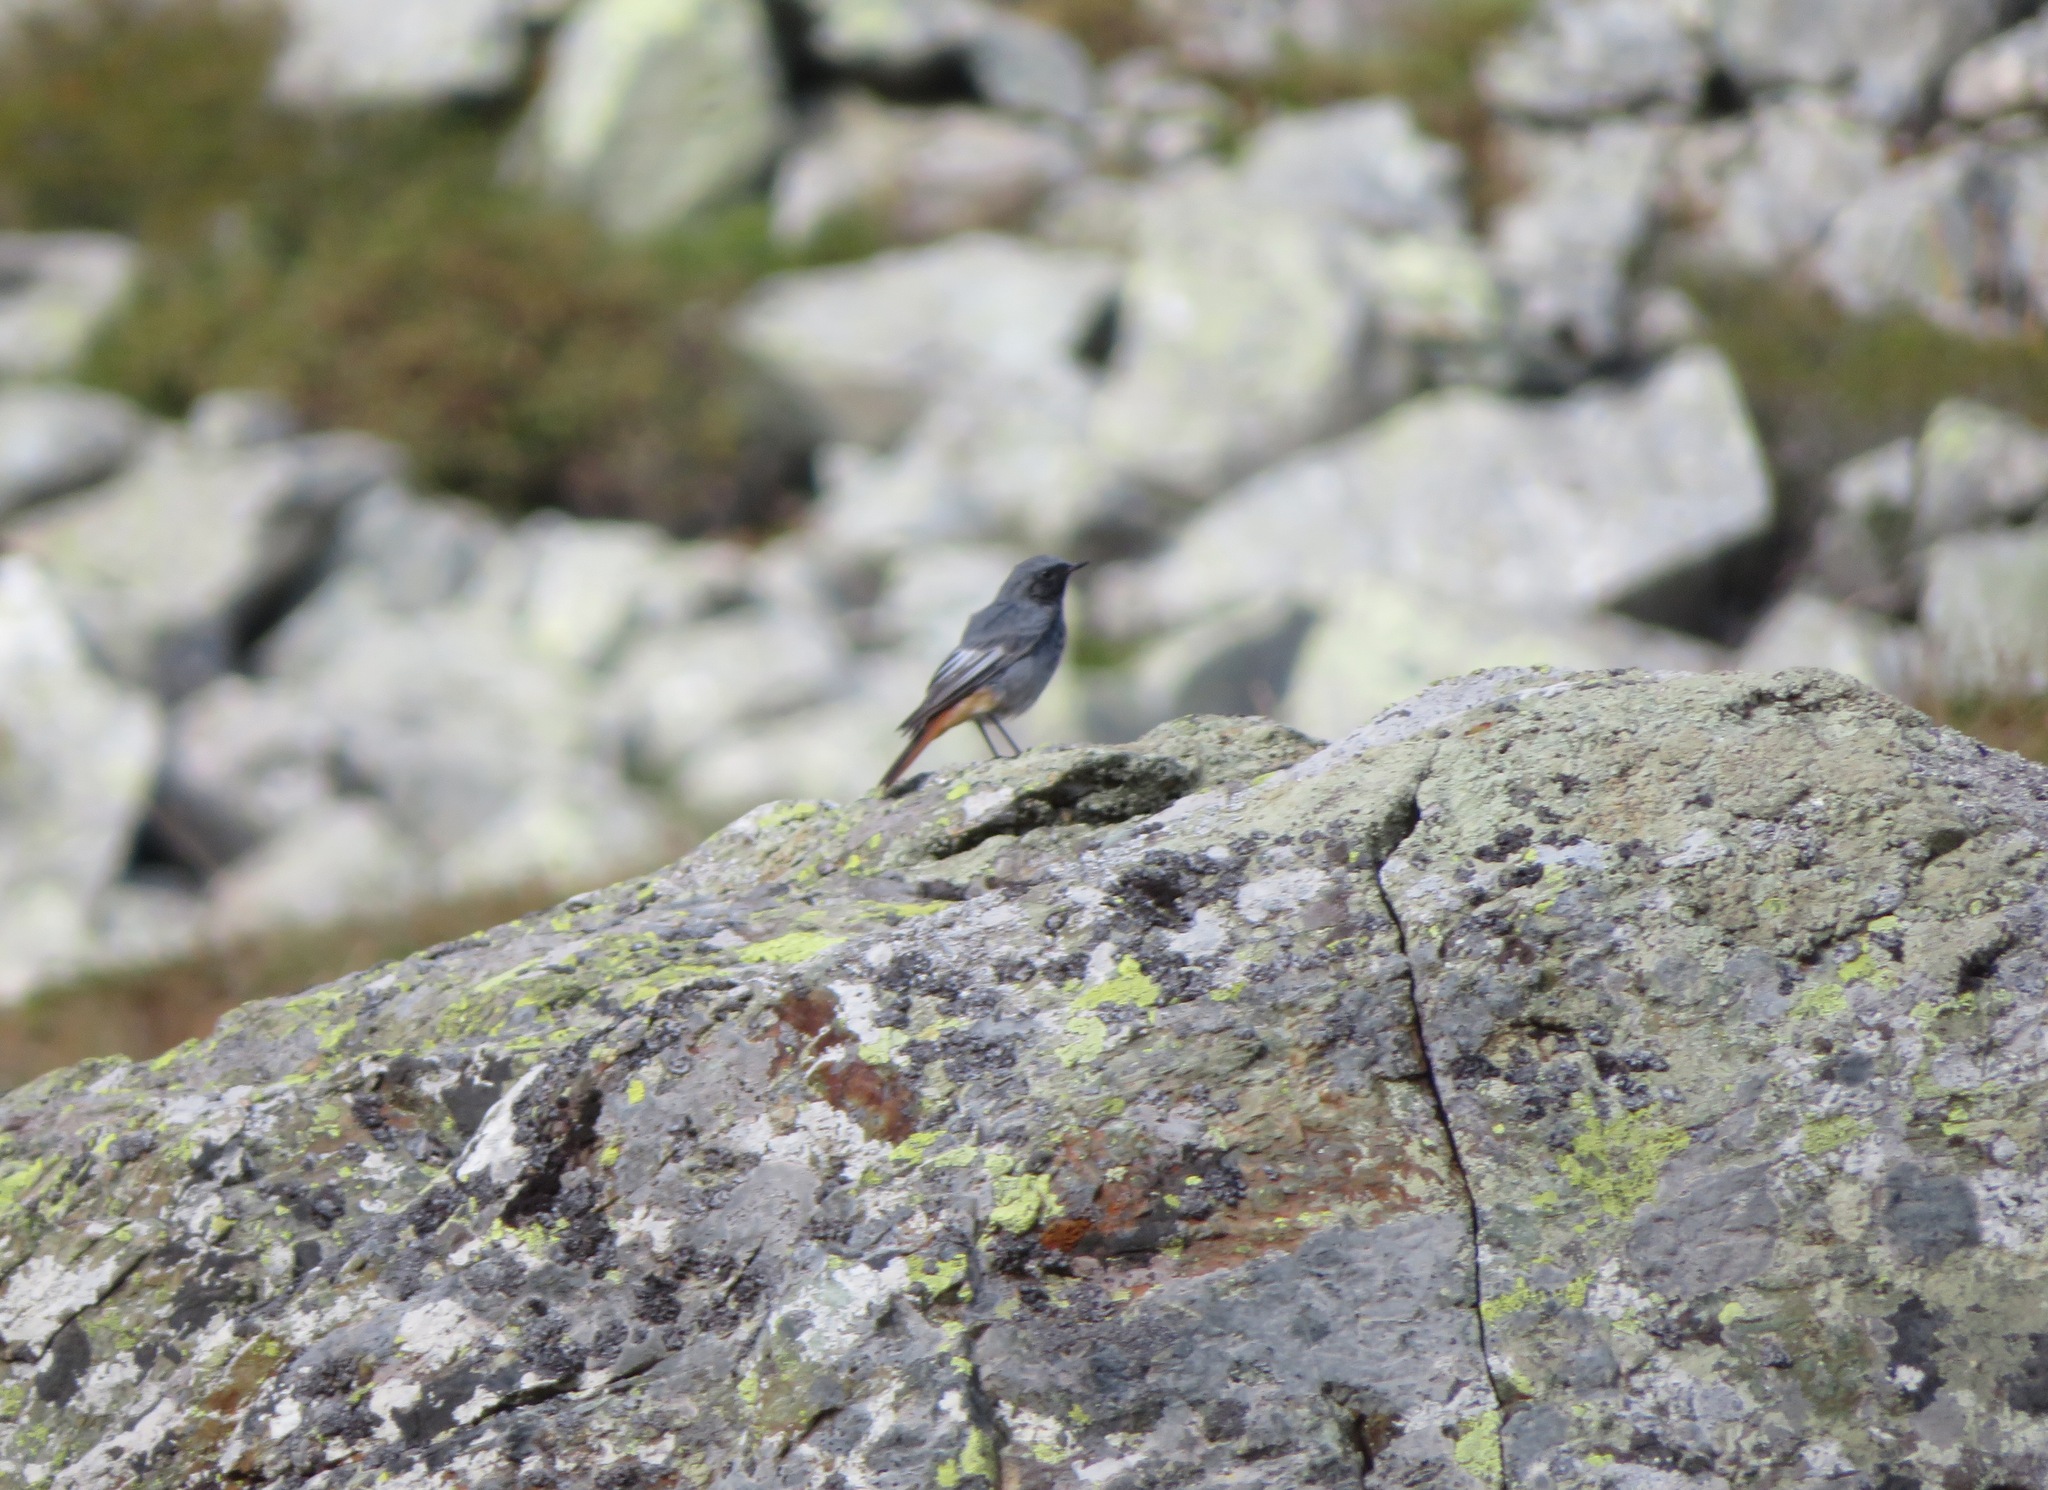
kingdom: Animalia
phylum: Chordata
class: Aves
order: Passeriformes
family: Muscicapidae
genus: Phoenicurus
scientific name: Phoenicurus ochruros
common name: Black redstart
